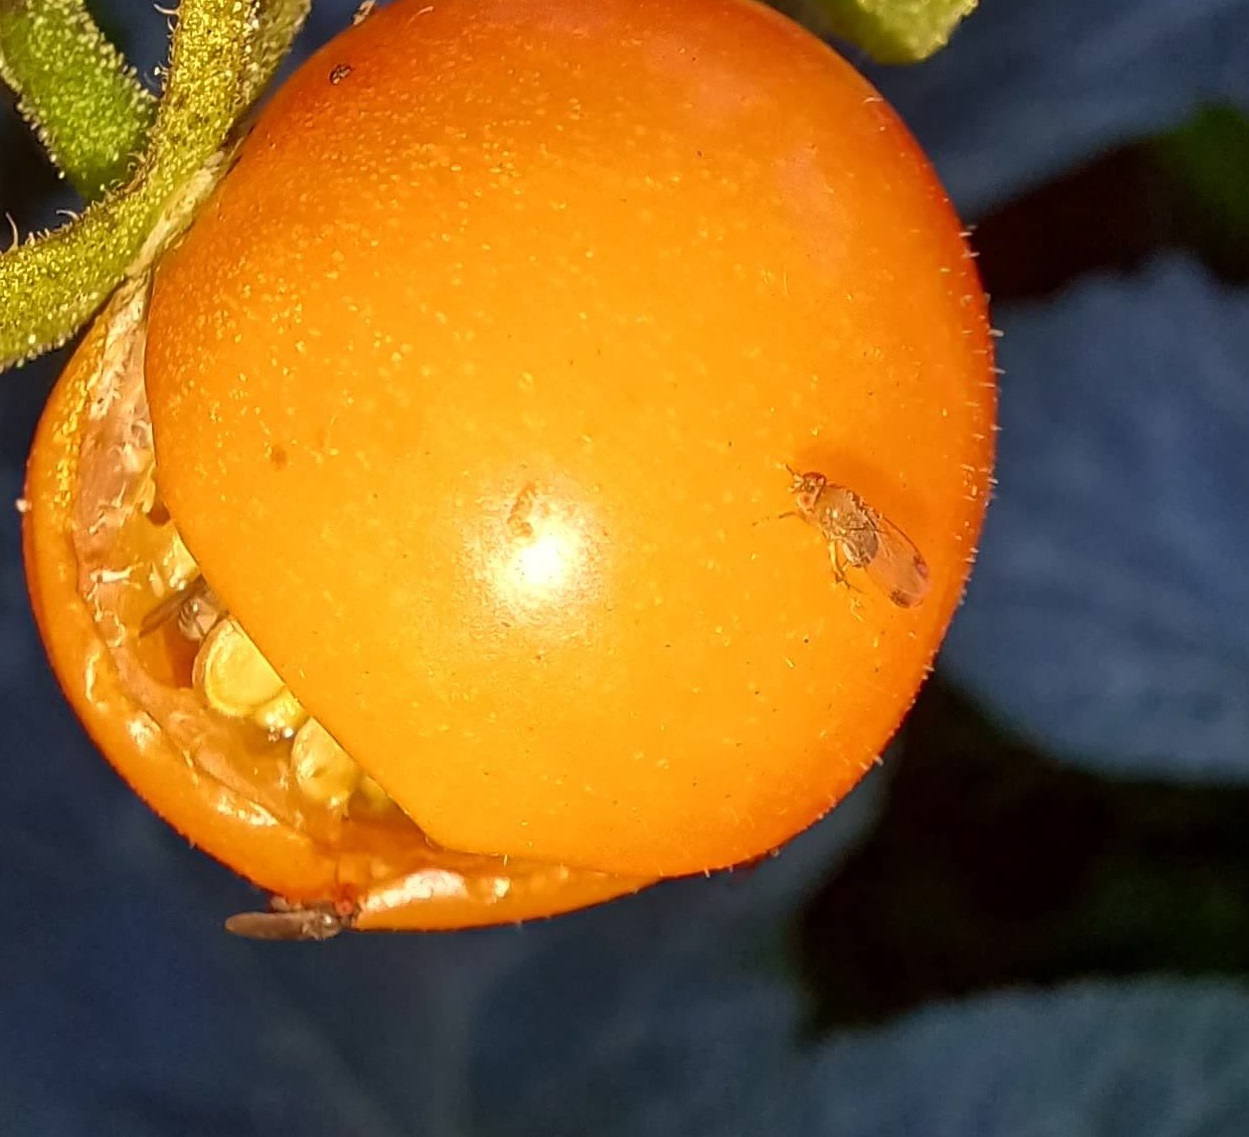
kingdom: Animalia
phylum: Arthropoda
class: Insecta
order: Diptera
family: Drosophilidae
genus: Drosophila
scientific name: Drosophila suzukii
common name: Spotted-wing drosophila
